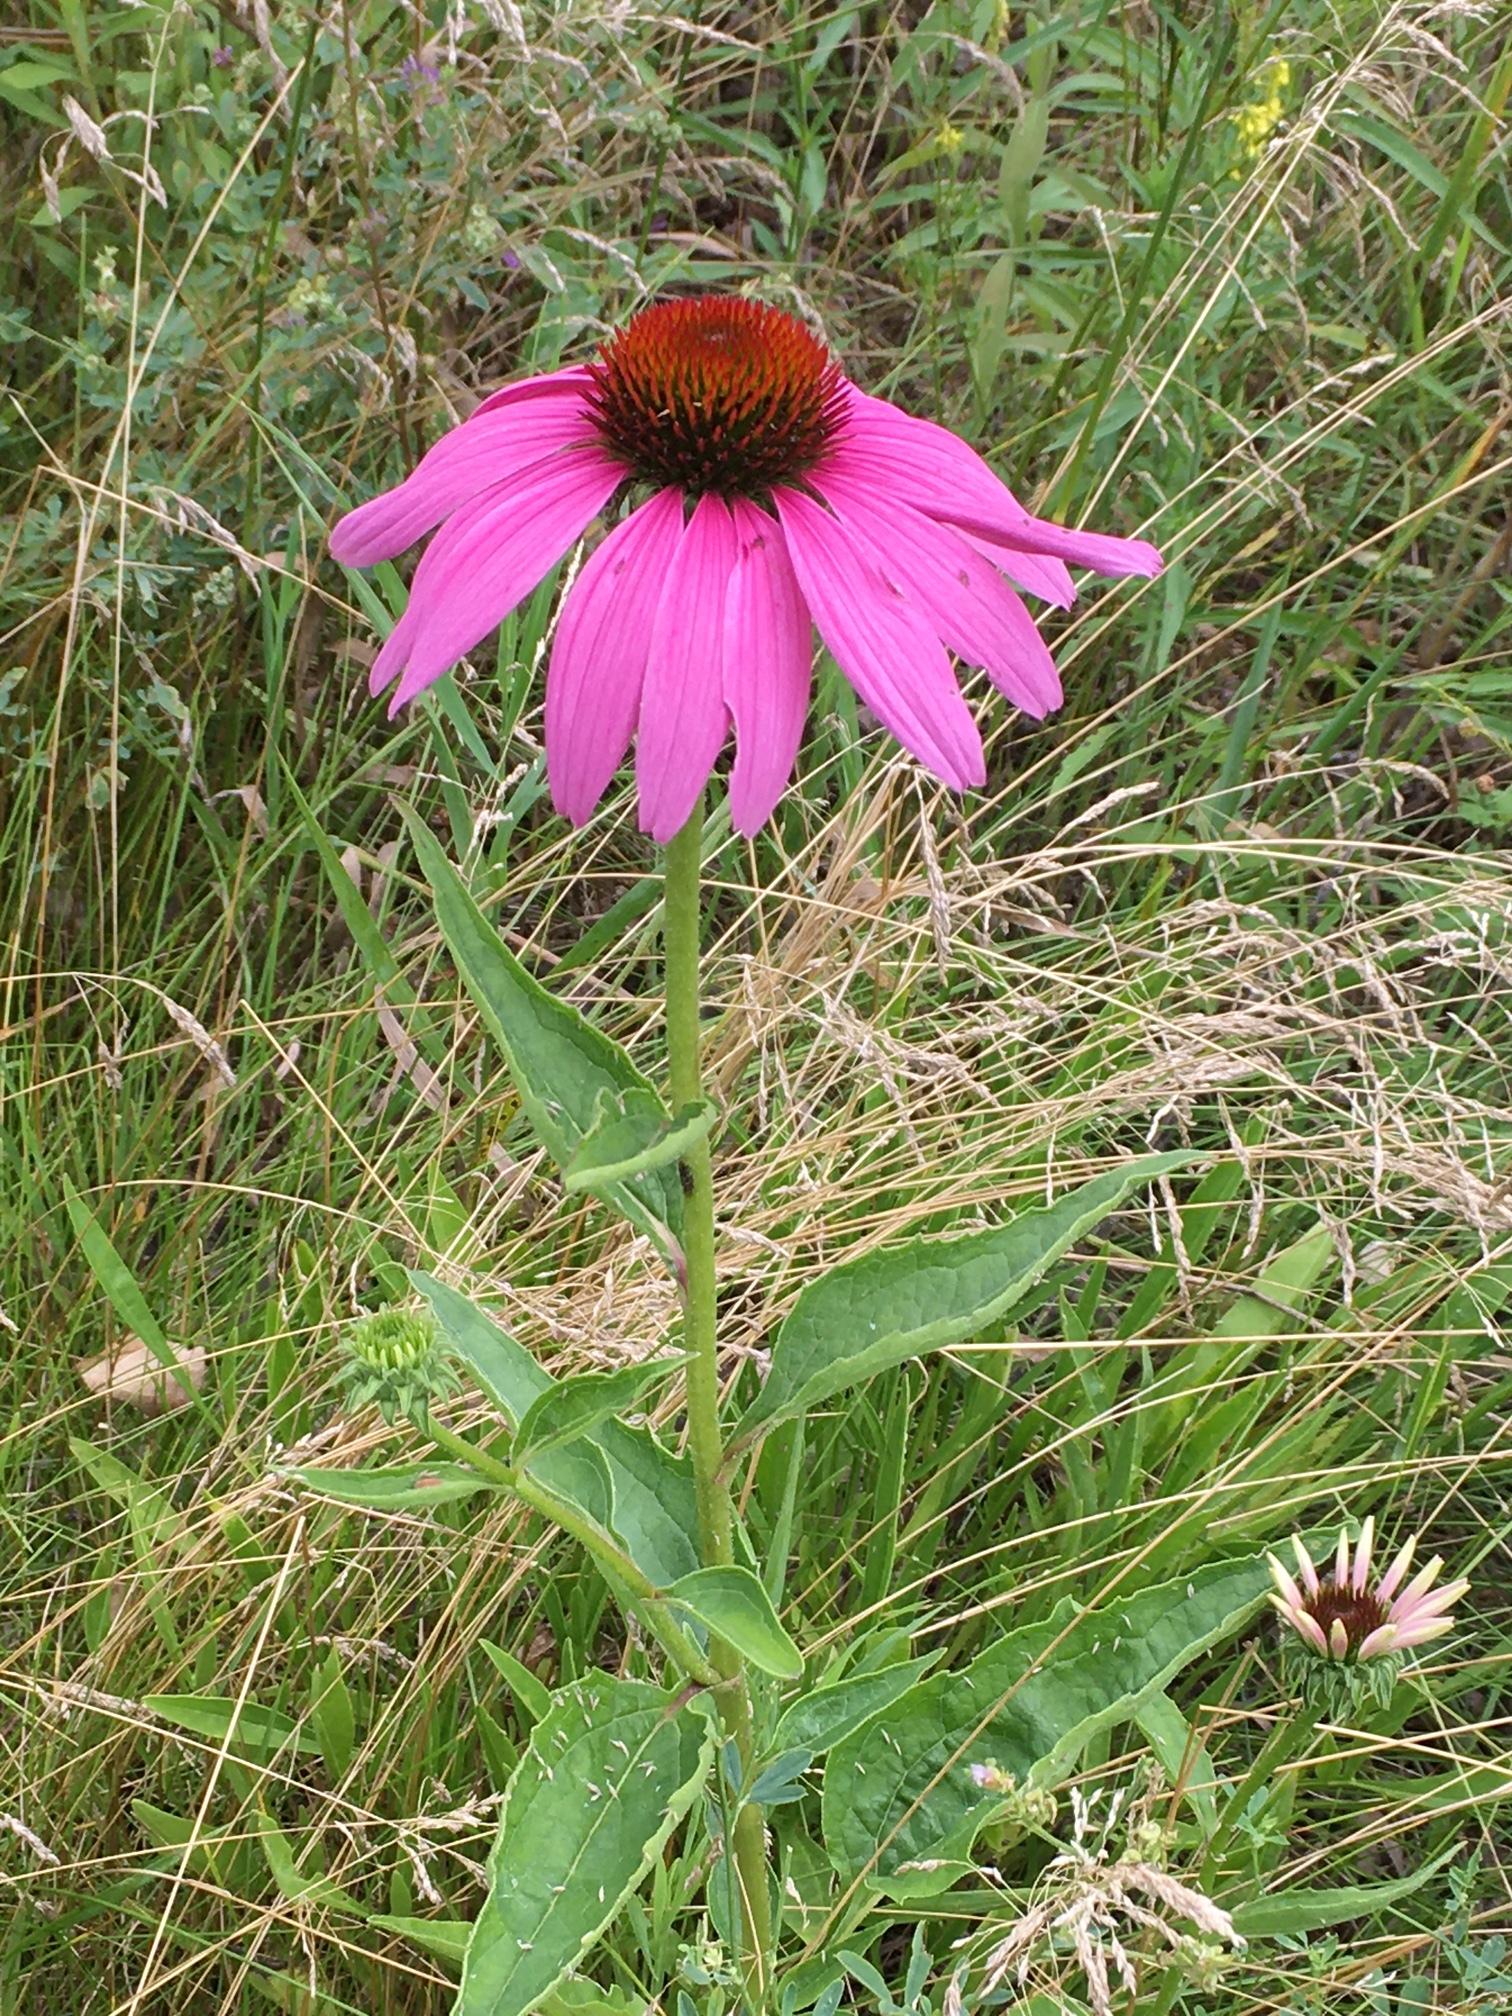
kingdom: Plantae
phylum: Tracheophyta
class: Magnoliopsida
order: Asterales
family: Asteraceae
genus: Echinacea
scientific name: Echinacea purpurea
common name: Broad-leaved purple coneflower
